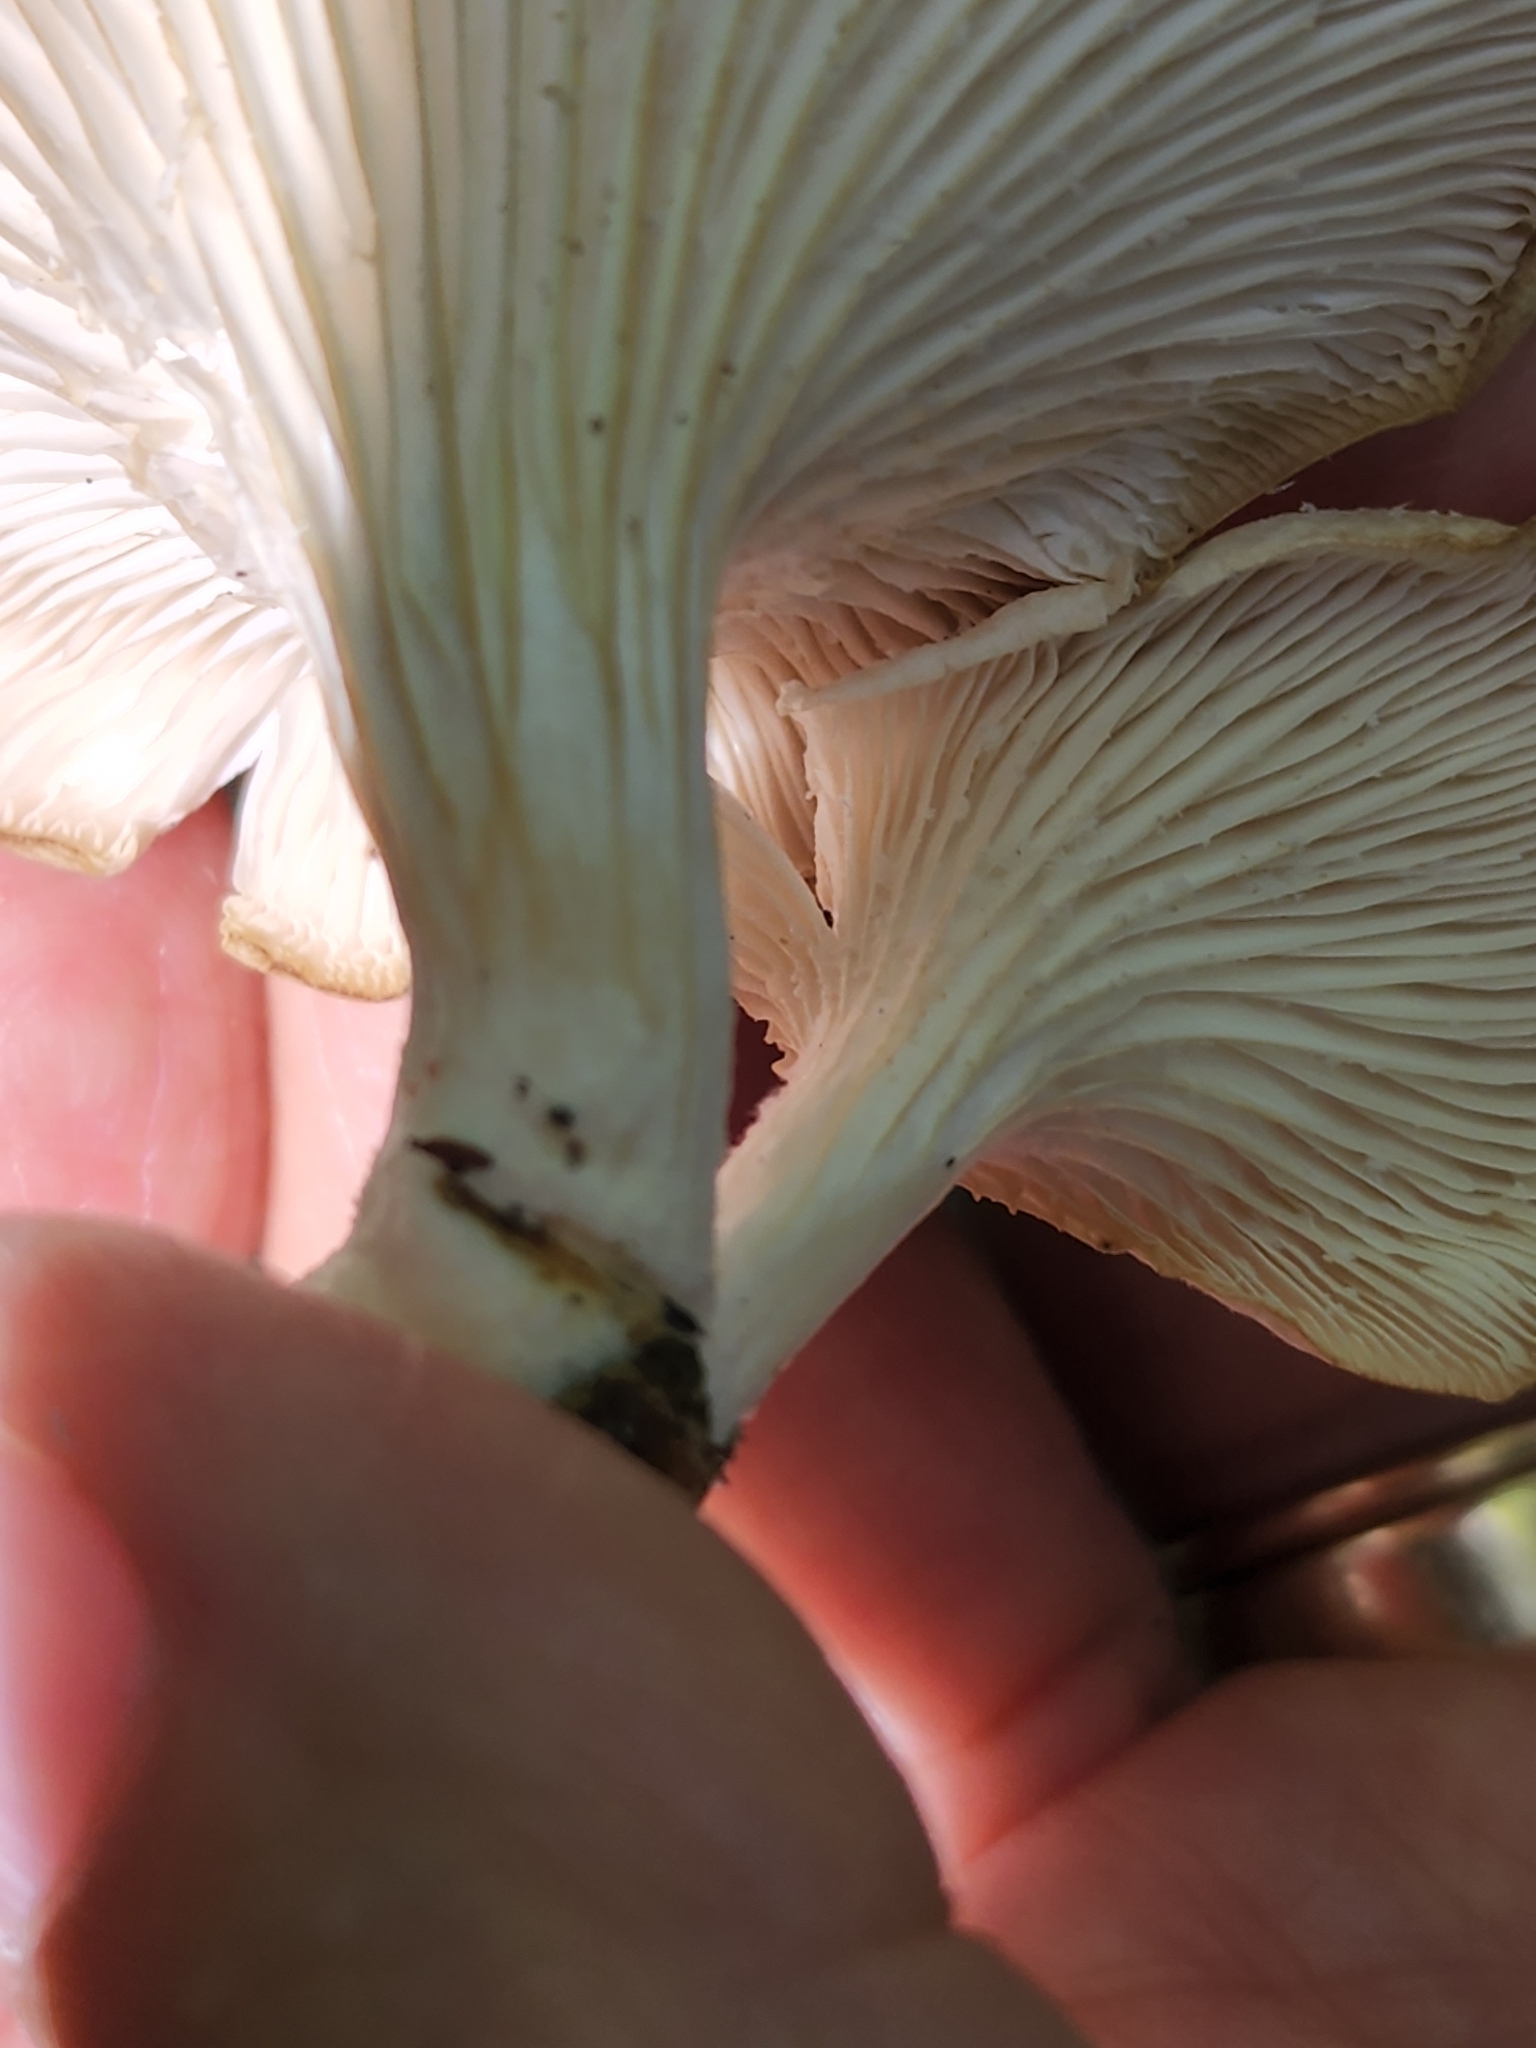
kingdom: Fungi
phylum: Basidiomycota
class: Agaricomycetes
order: Agaricales
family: Pleurotaceae
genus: Pleurotus
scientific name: Pleurotus pulmonarius
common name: Pale oyster
